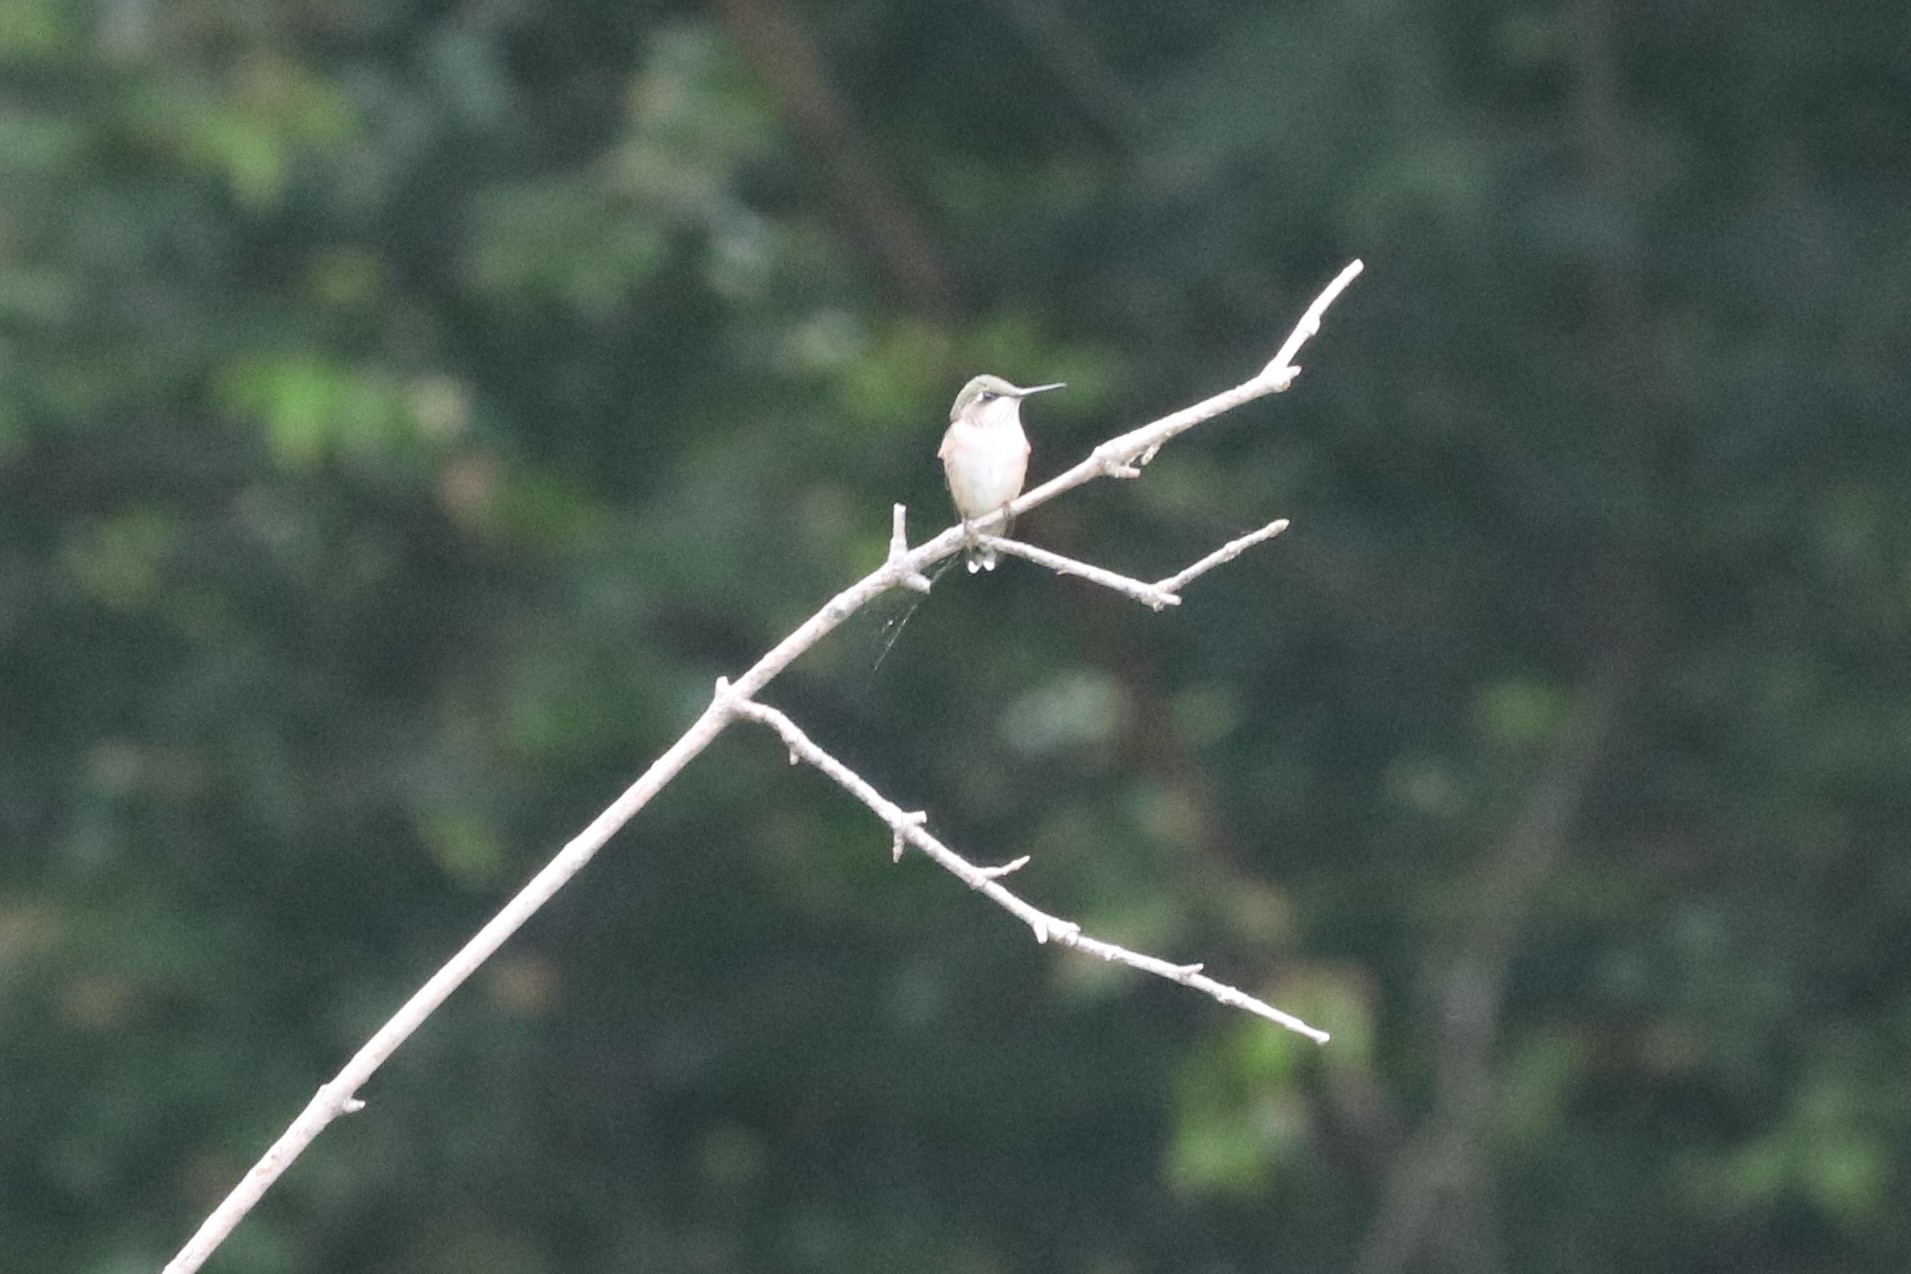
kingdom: Animalia
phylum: Chordata
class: Aves
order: Apodiformes
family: Trochilidae
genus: Archilochus
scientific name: Archilochus colubris
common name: Ruby-throated hummingbird
